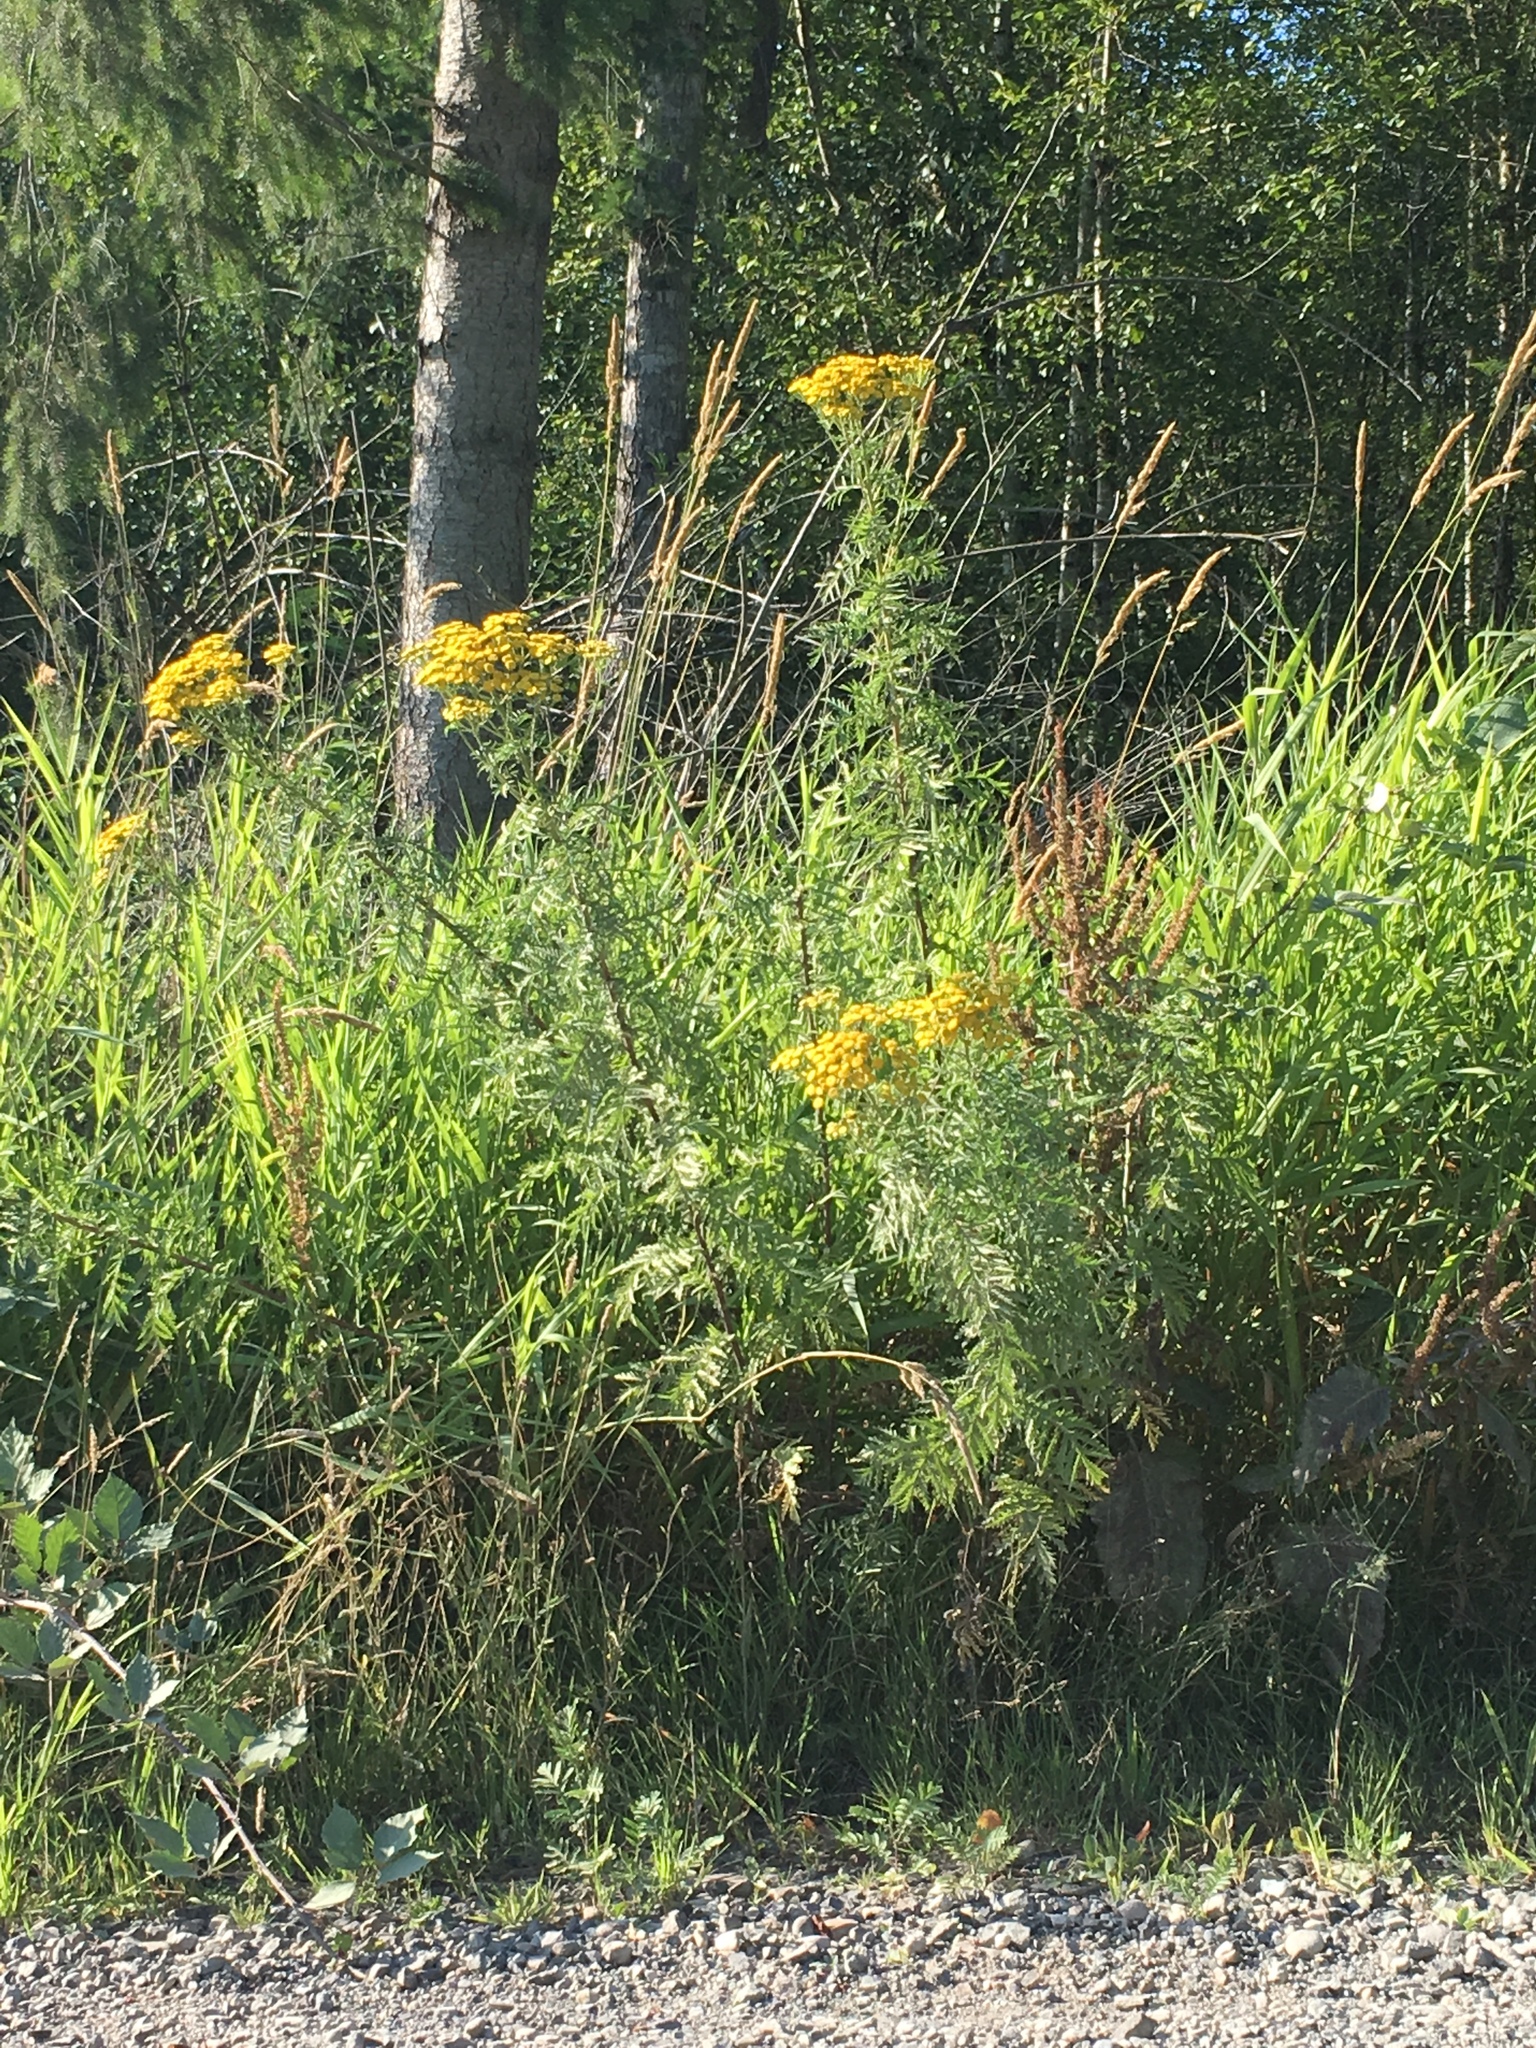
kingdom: Plantae
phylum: Tracheophyta
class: Magnoliopsida
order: Asterales
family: Asteraceae
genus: Tanacetum
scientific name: Tanacetum vulgare
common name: Common tansy
